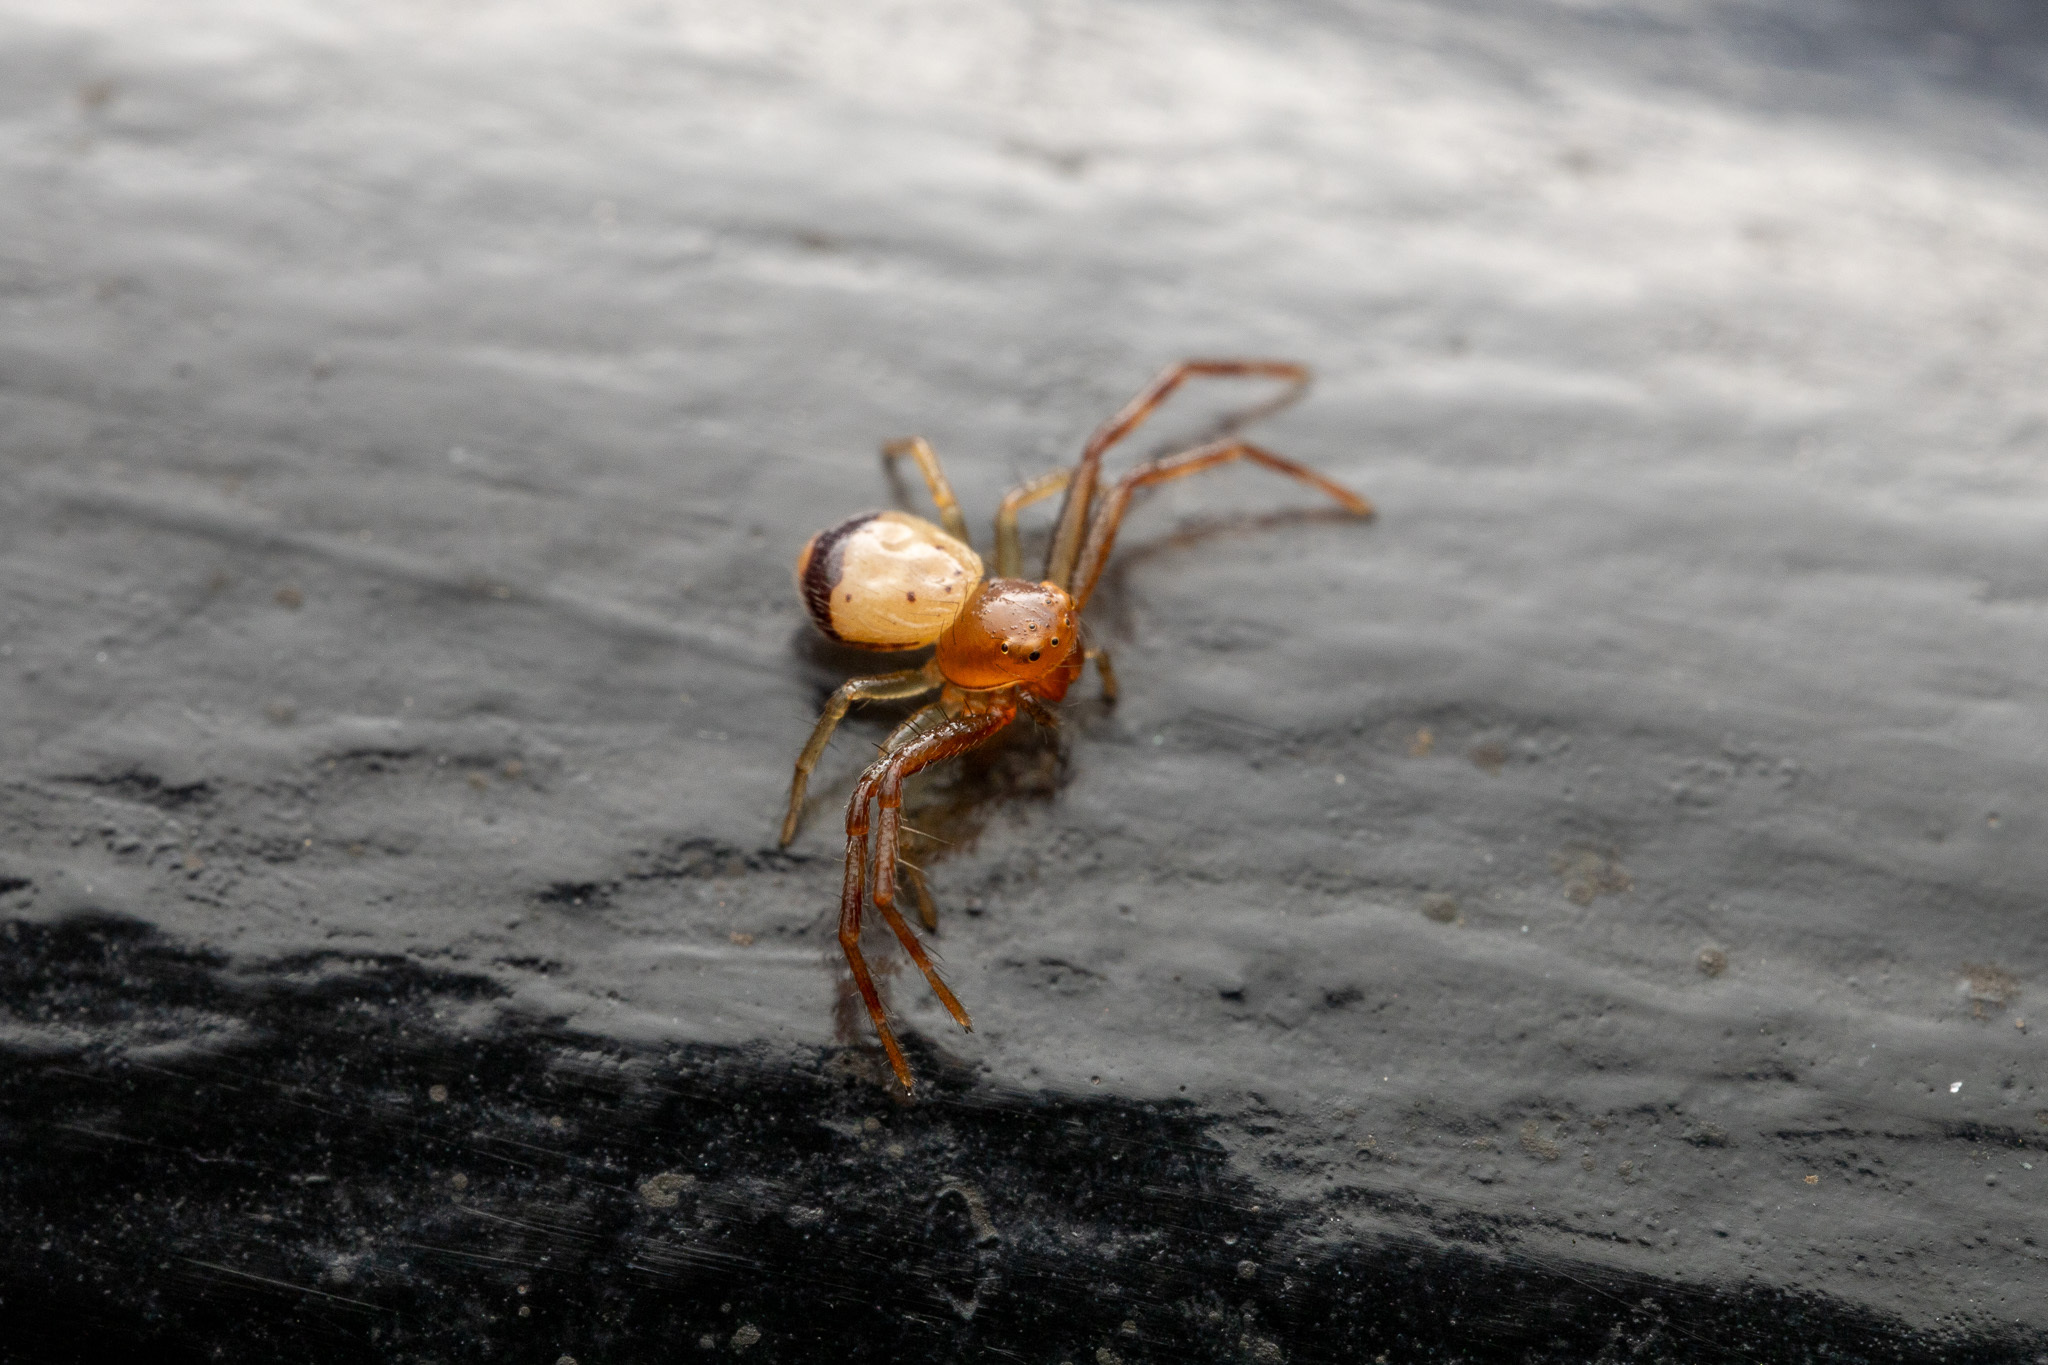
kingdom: Animalia
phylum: Arthropoda
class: Arachnida
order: Araneae
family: Thomisidae
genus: Synema
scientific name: Synema parvulum
